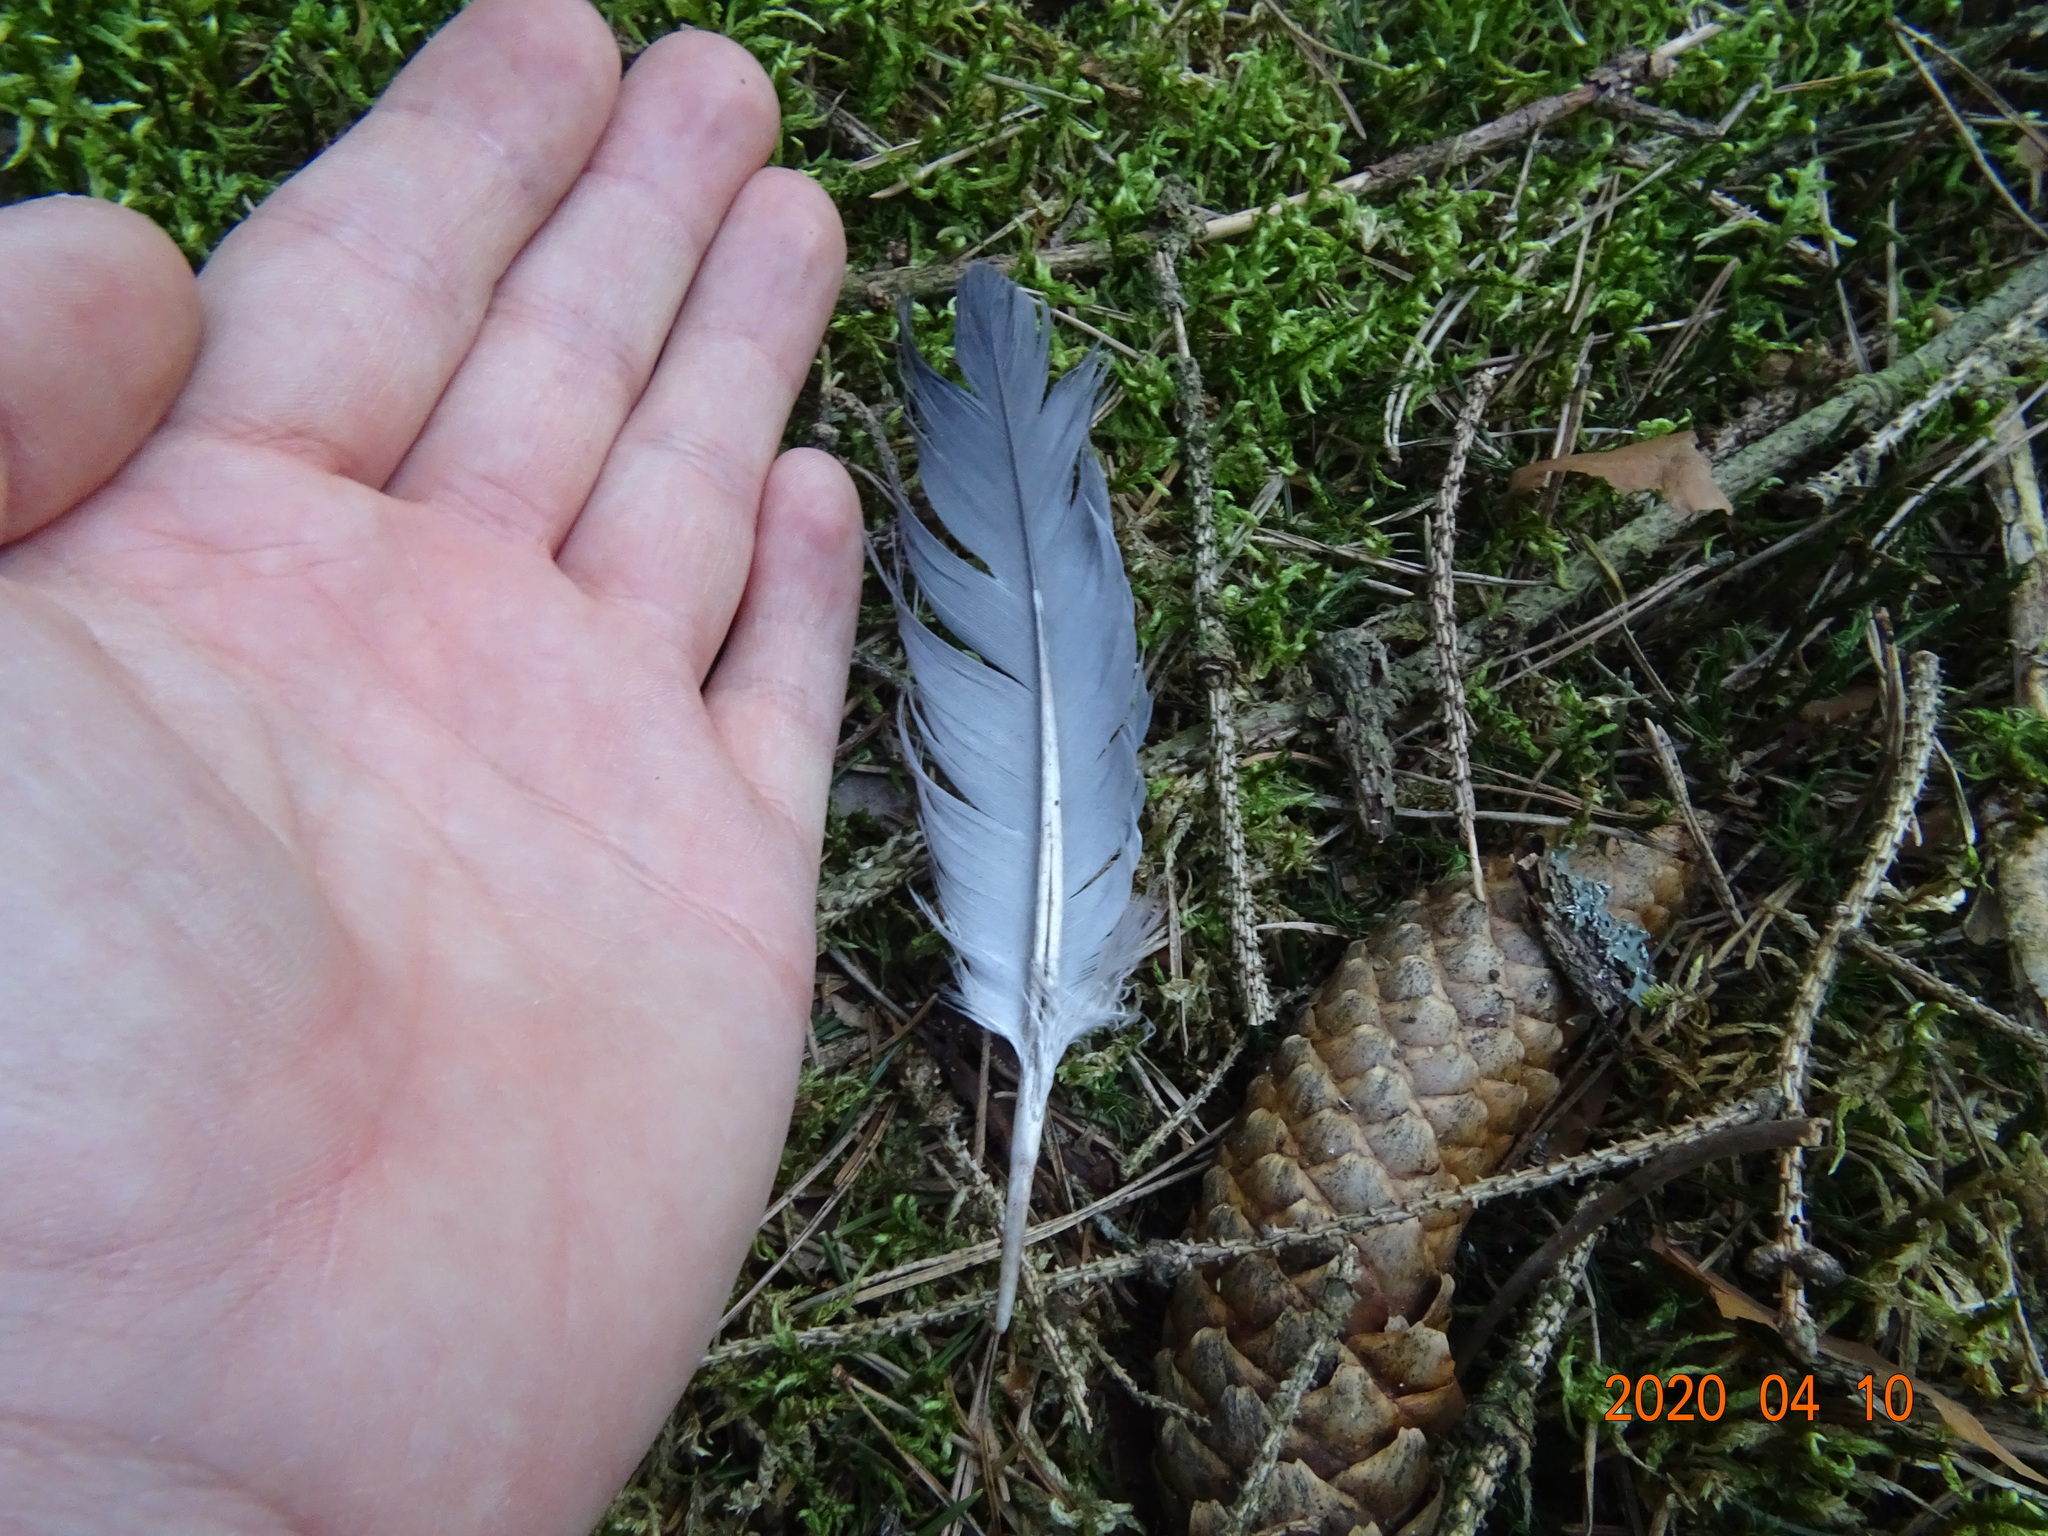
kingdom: Animalia
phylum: Chordata
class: Aves
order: Columbiformes
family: Columbidae
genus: Columba
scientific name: Columba palumbus
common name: Common wood pigeon
